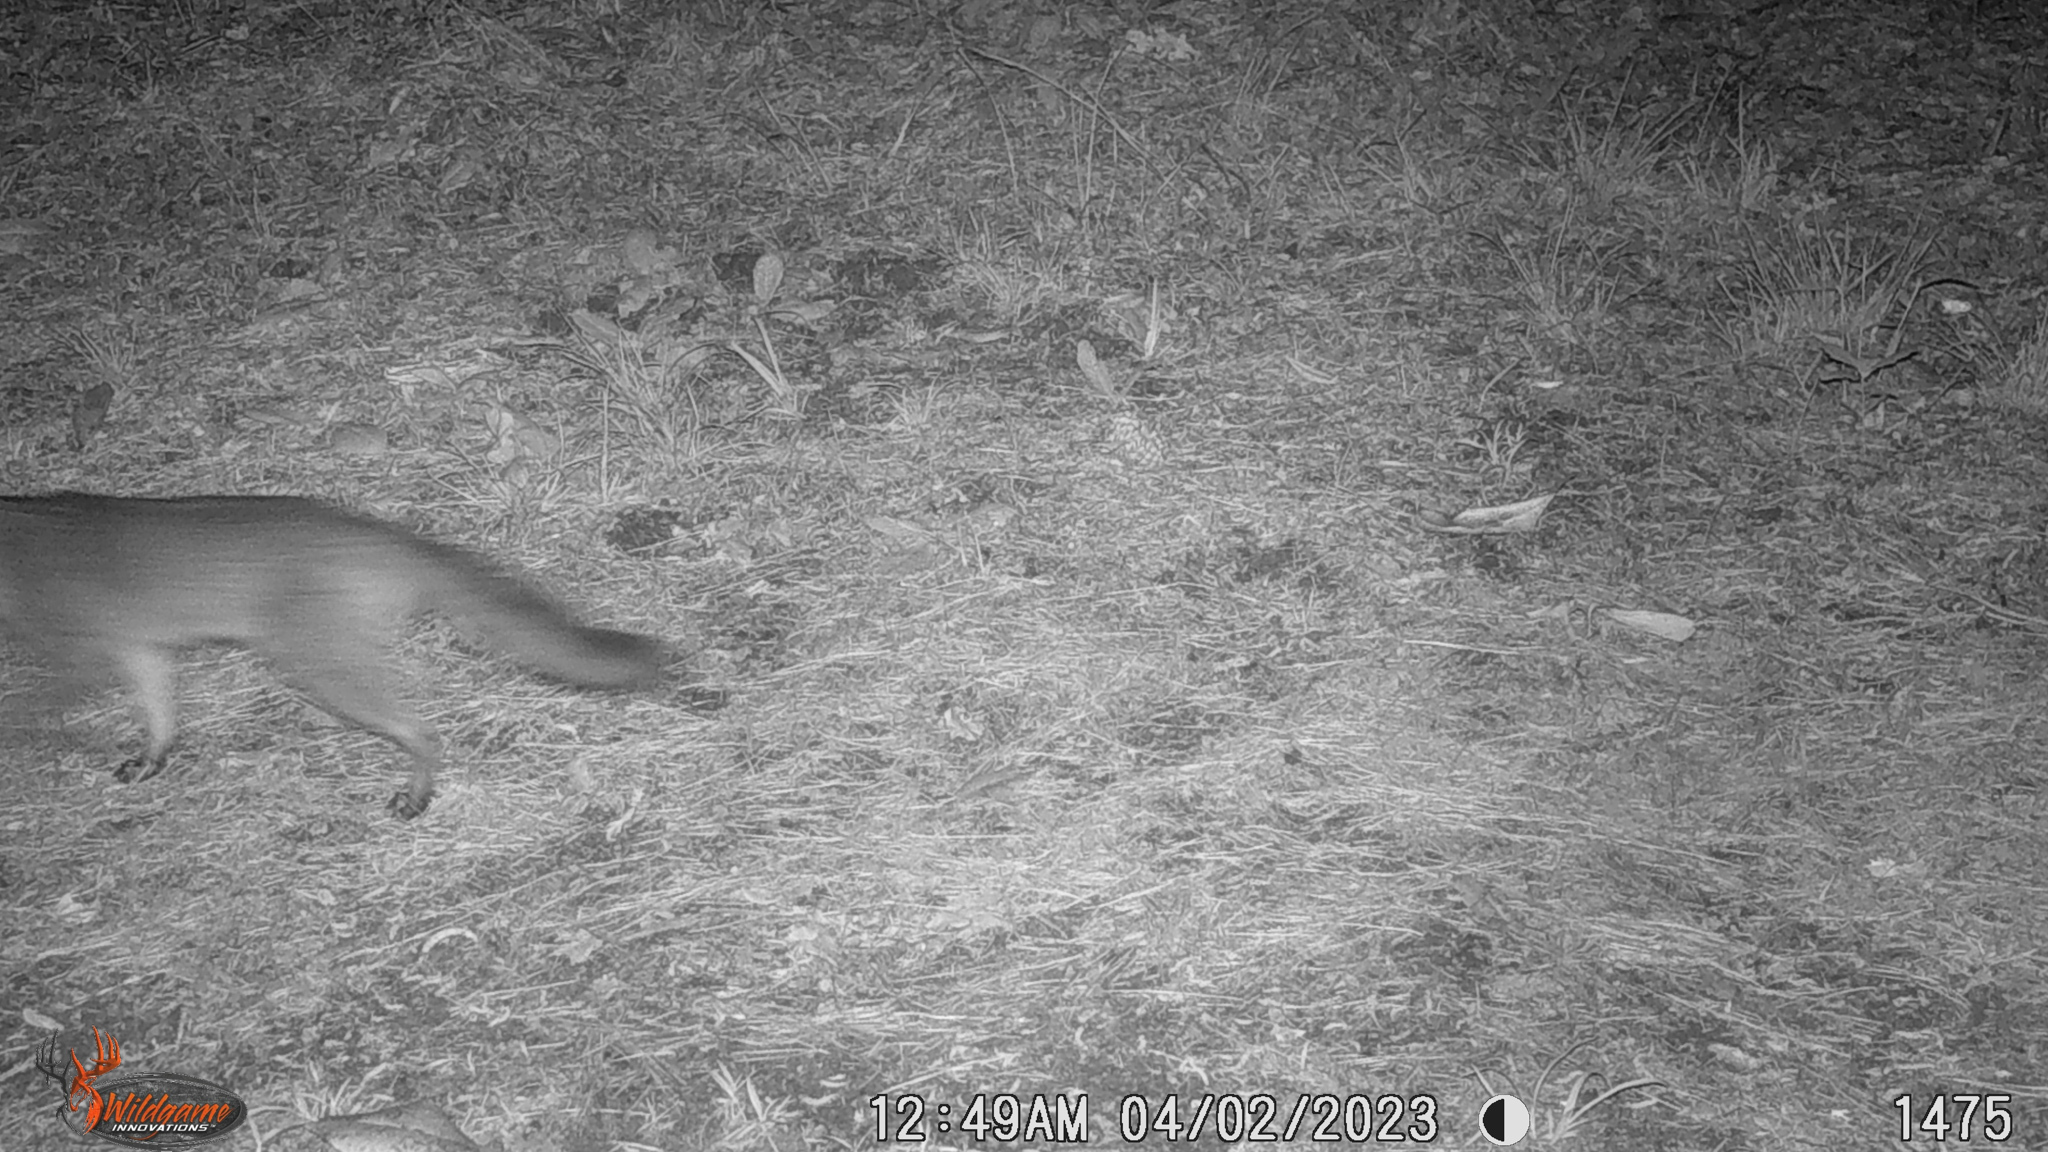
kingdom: Animalia
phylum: Chordata
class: Mammalia
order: Carnivora
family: Canidae
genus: Urocyon
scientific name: Urocyon cinereoargenteus
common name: Gray fox
